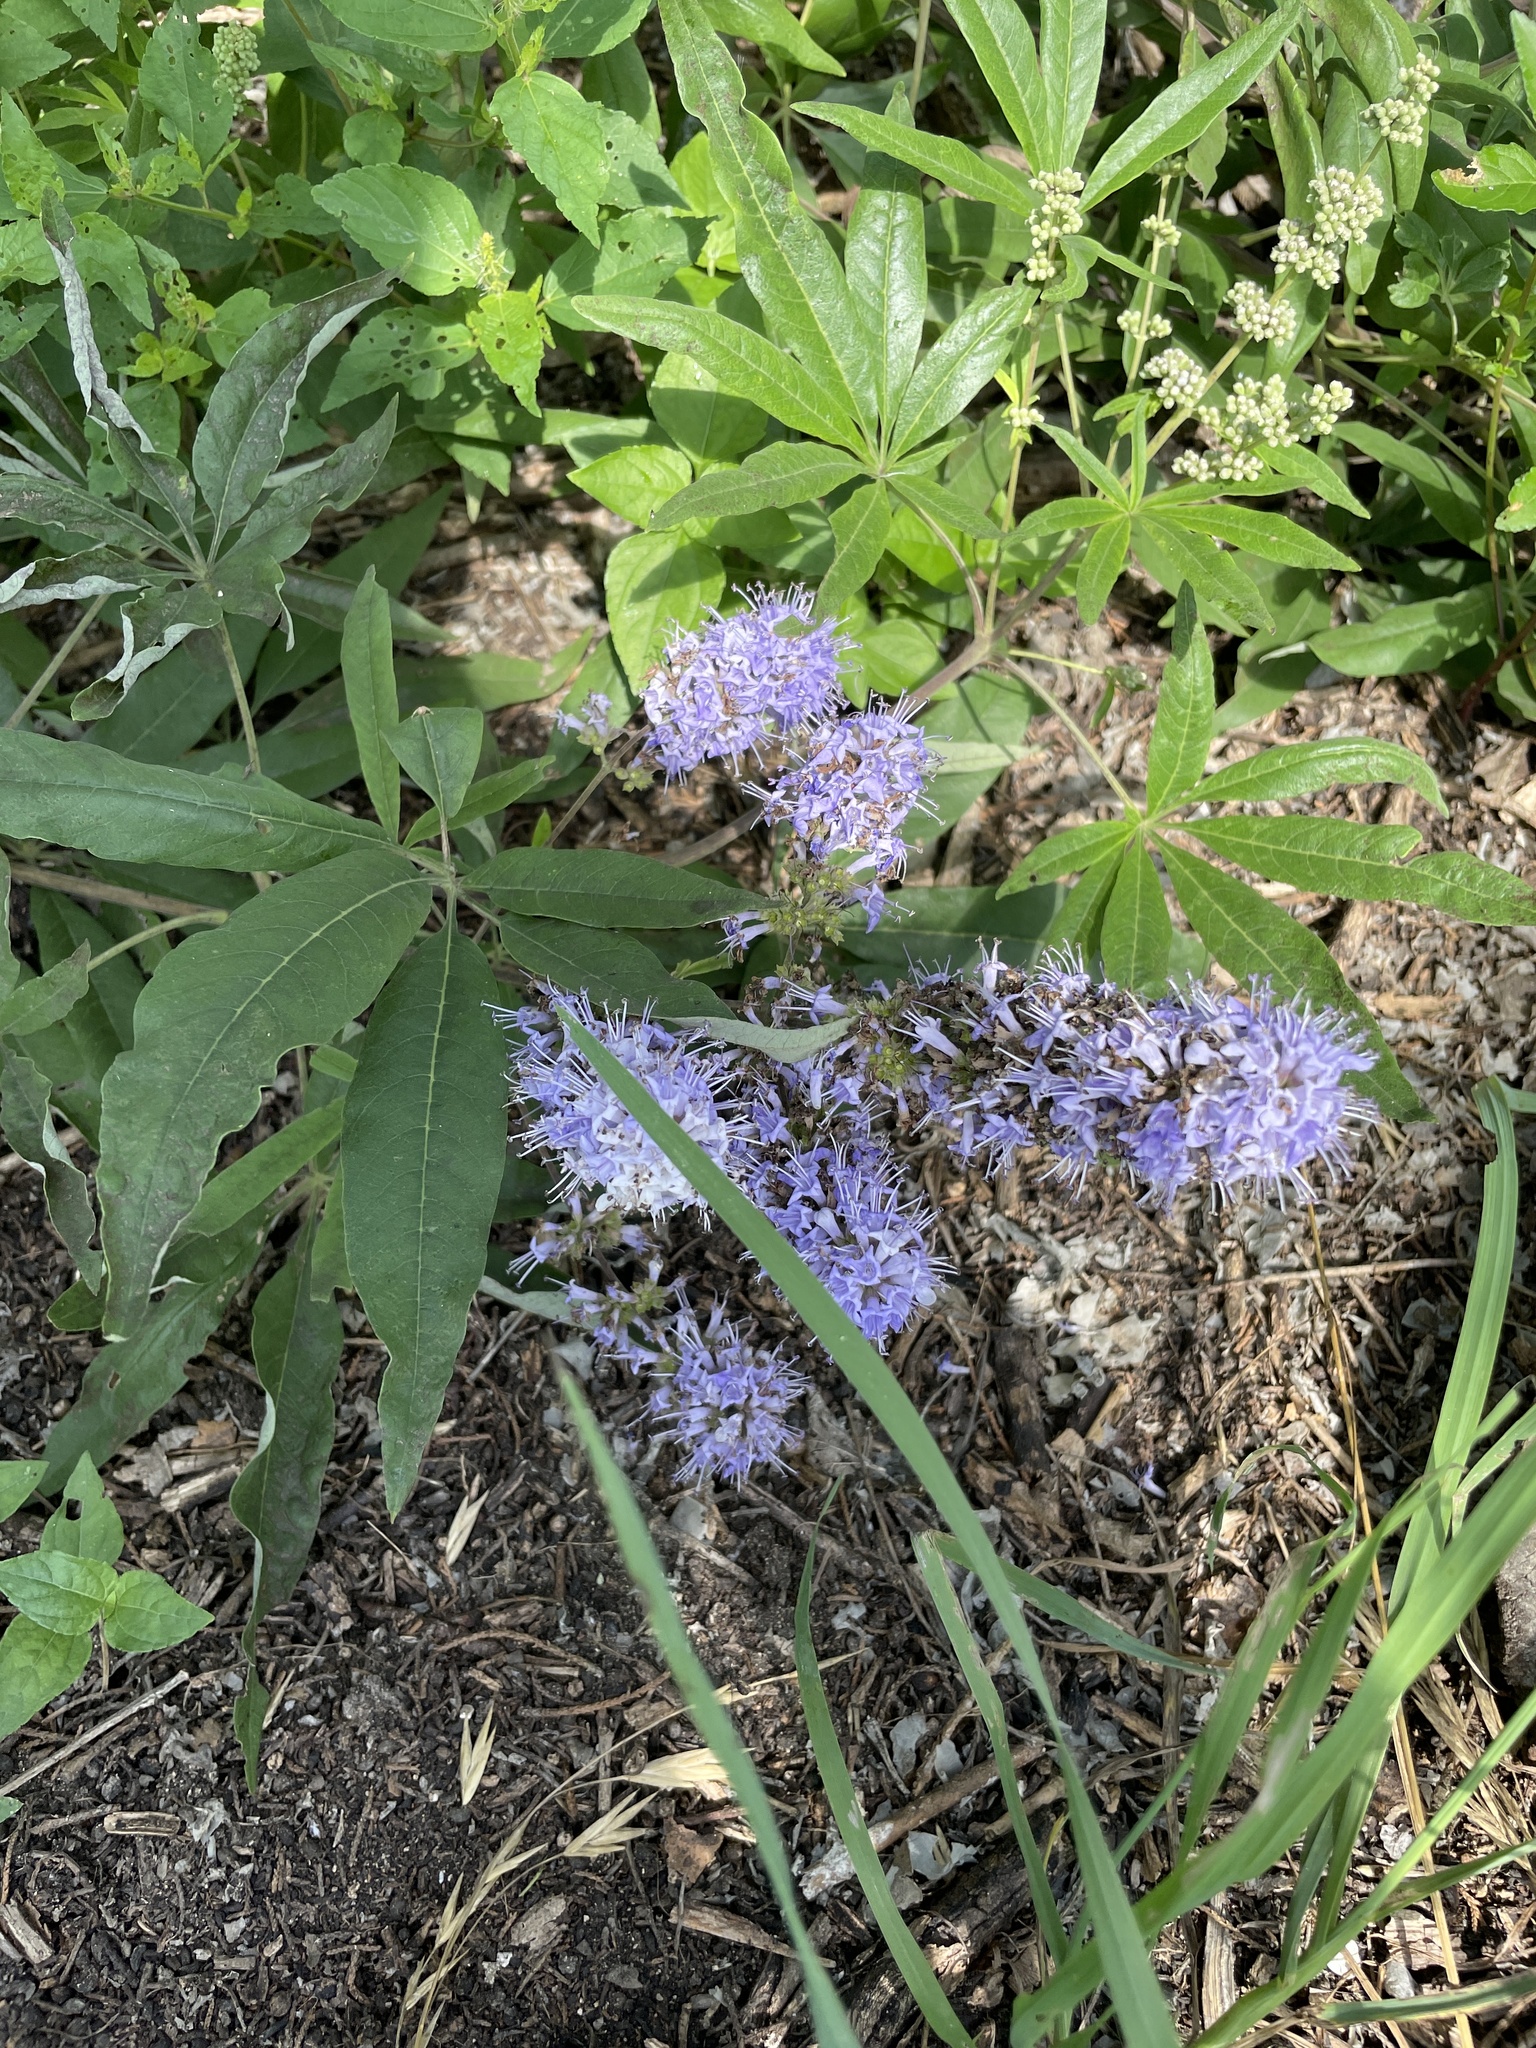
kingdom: Plantae
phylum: Tracheophyta
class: Magnoliopsida
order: Lamiales
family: Lamiaceae
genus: Vitex
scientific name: Vitex agnus-castus
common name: Chasteberry
